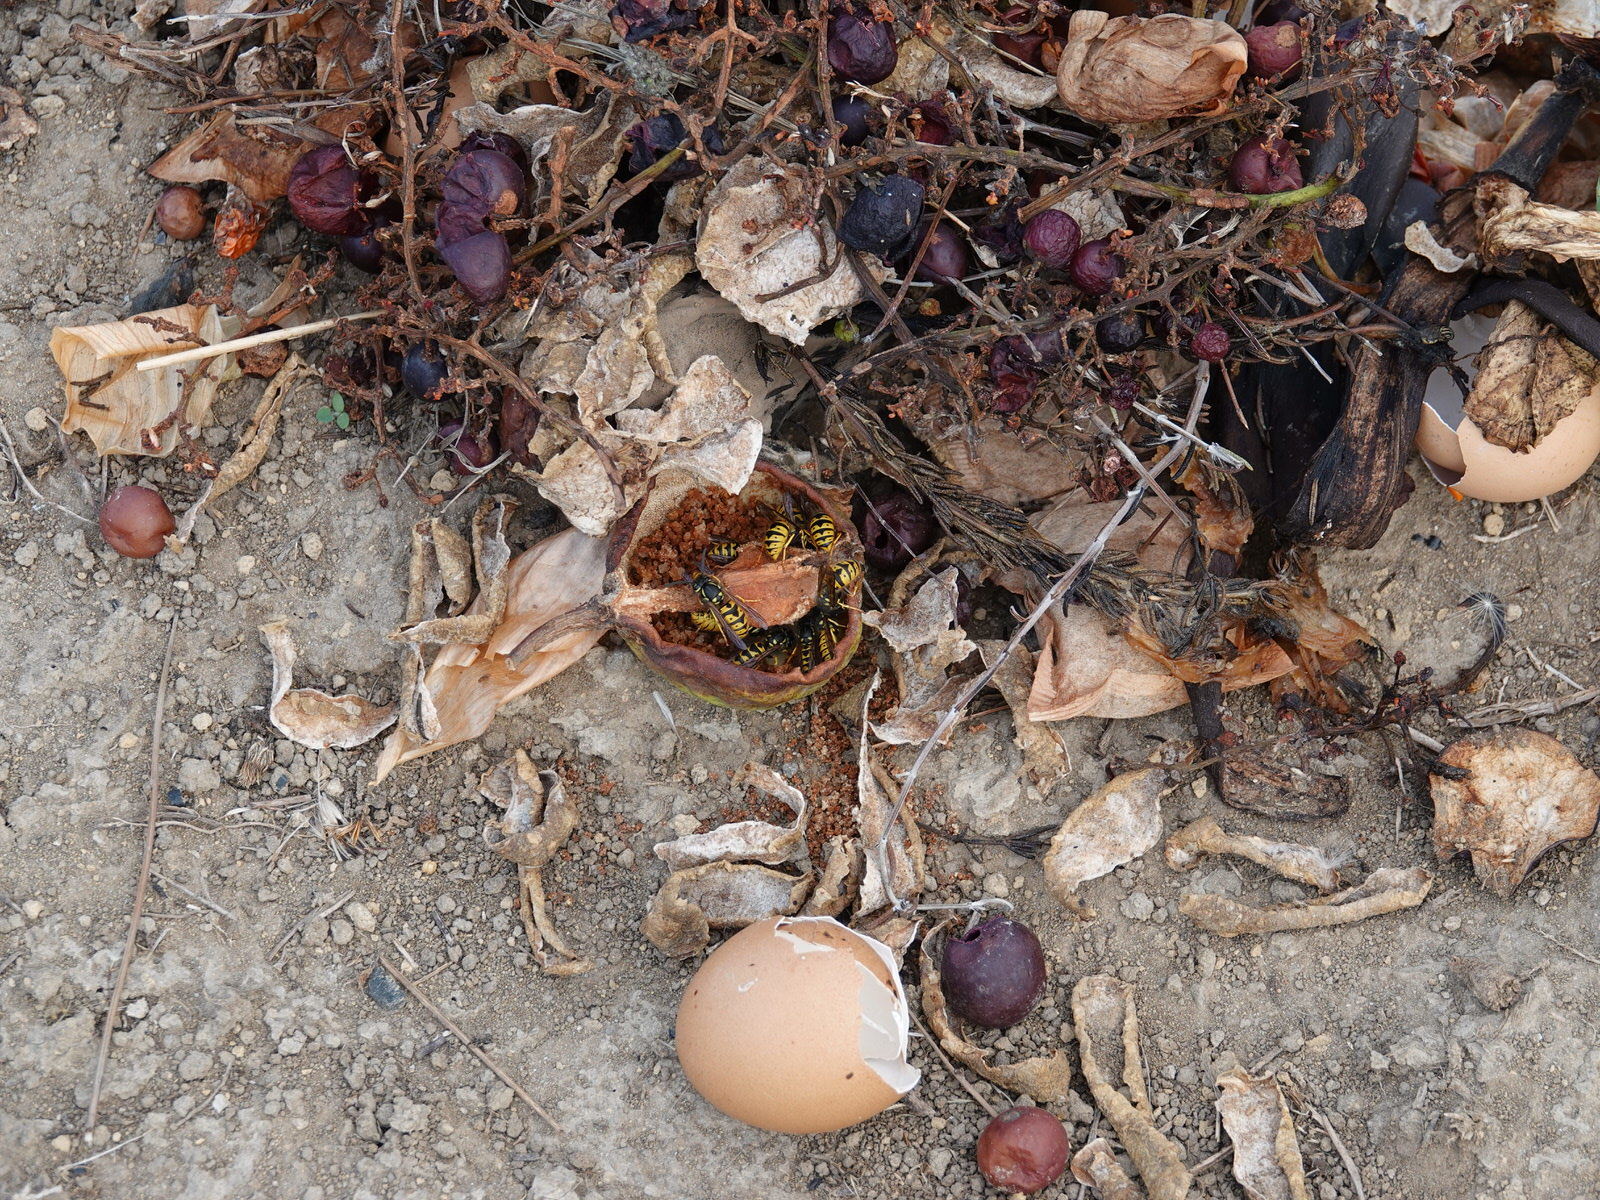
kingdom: Animalia
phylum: Arthropoda
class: Insecta
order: Hymenoptera
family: Vespidae
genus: Vespula
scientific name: Vespula germanica
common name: German wasp
